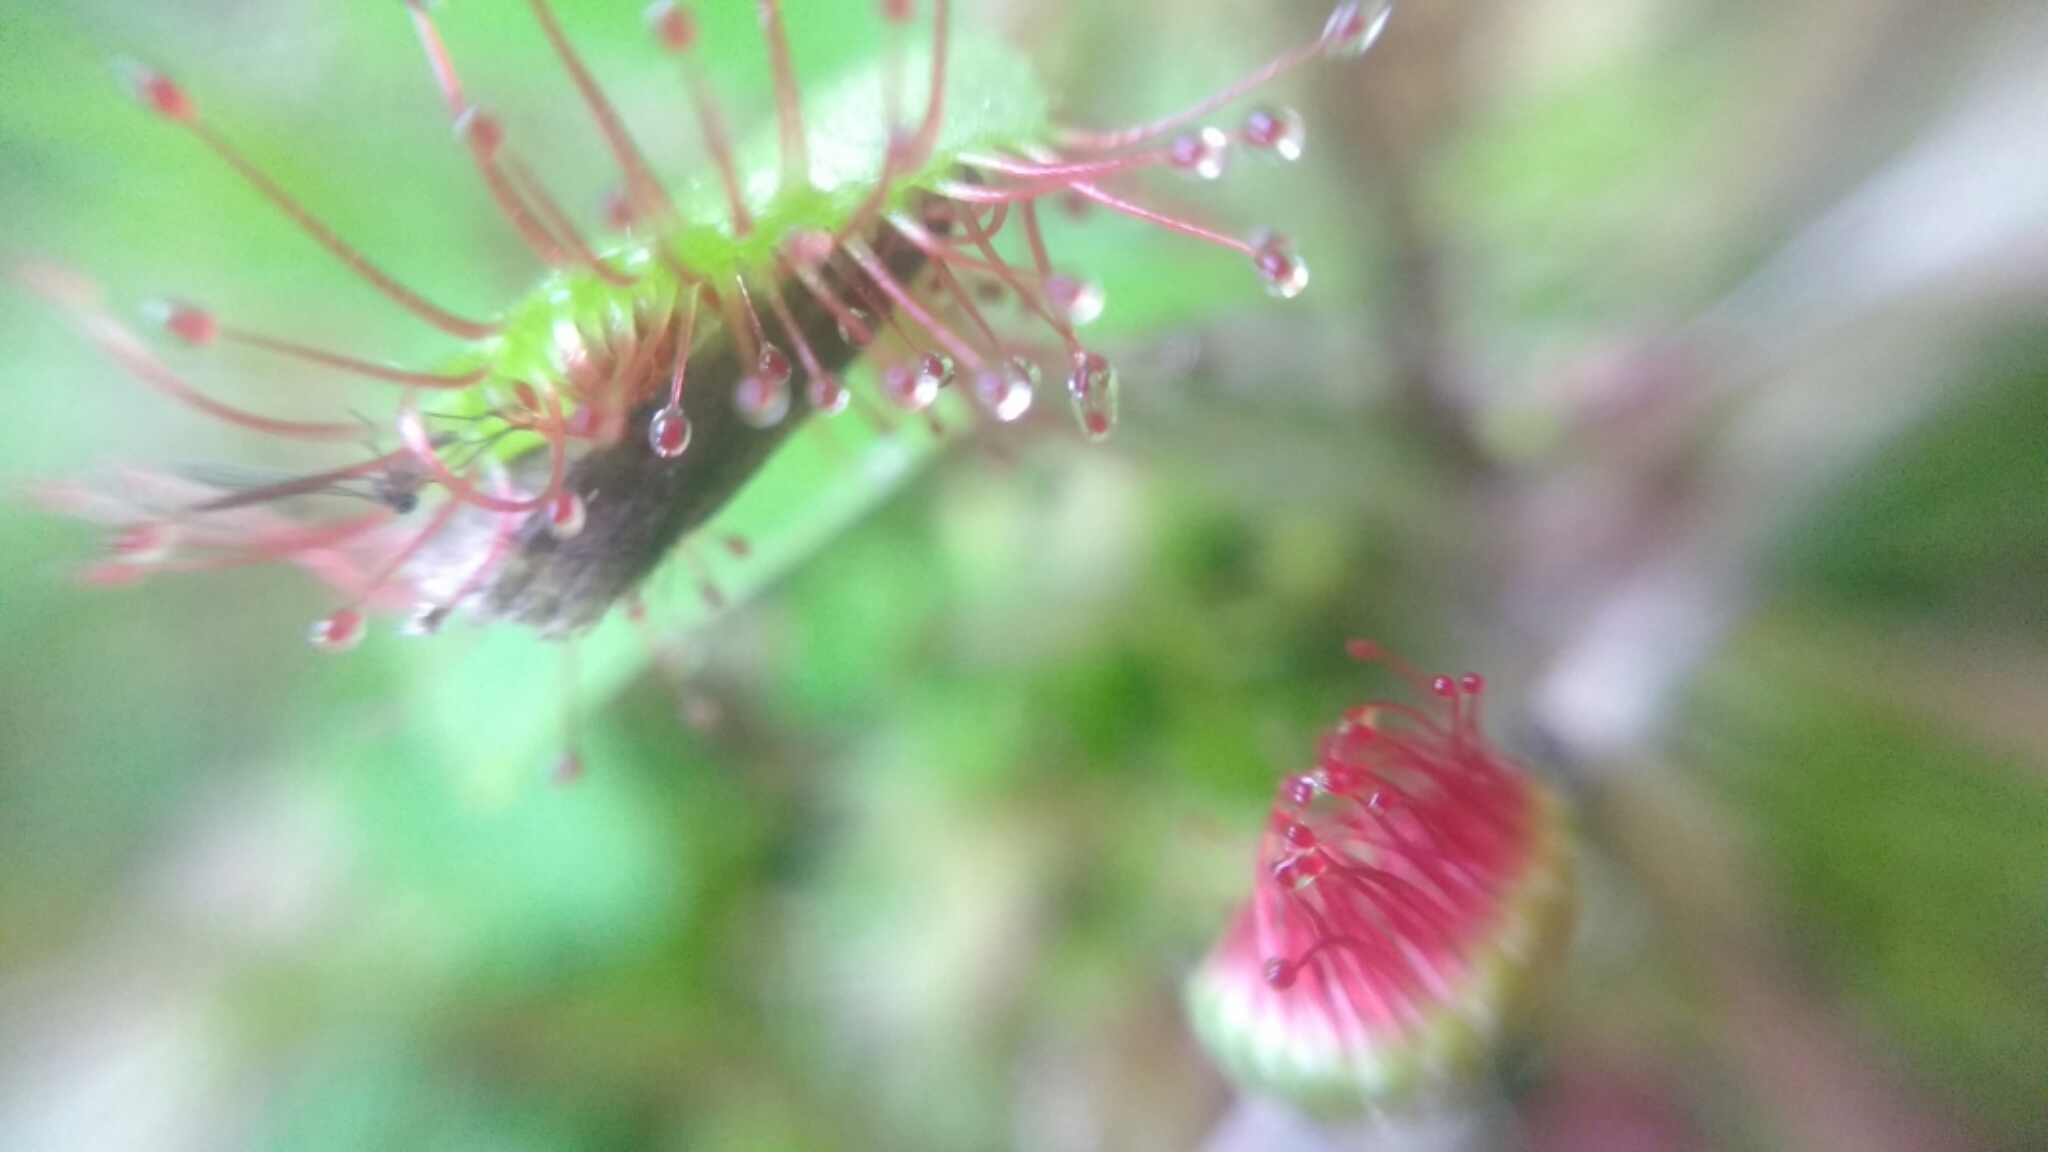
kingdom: Plantae
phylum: Tracheophyta
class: Magnoliopsida
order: Caryophyllales
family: Droseraceae
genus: Drosera
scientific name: Drosera rotundifolia
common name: Round-leaved sundew
